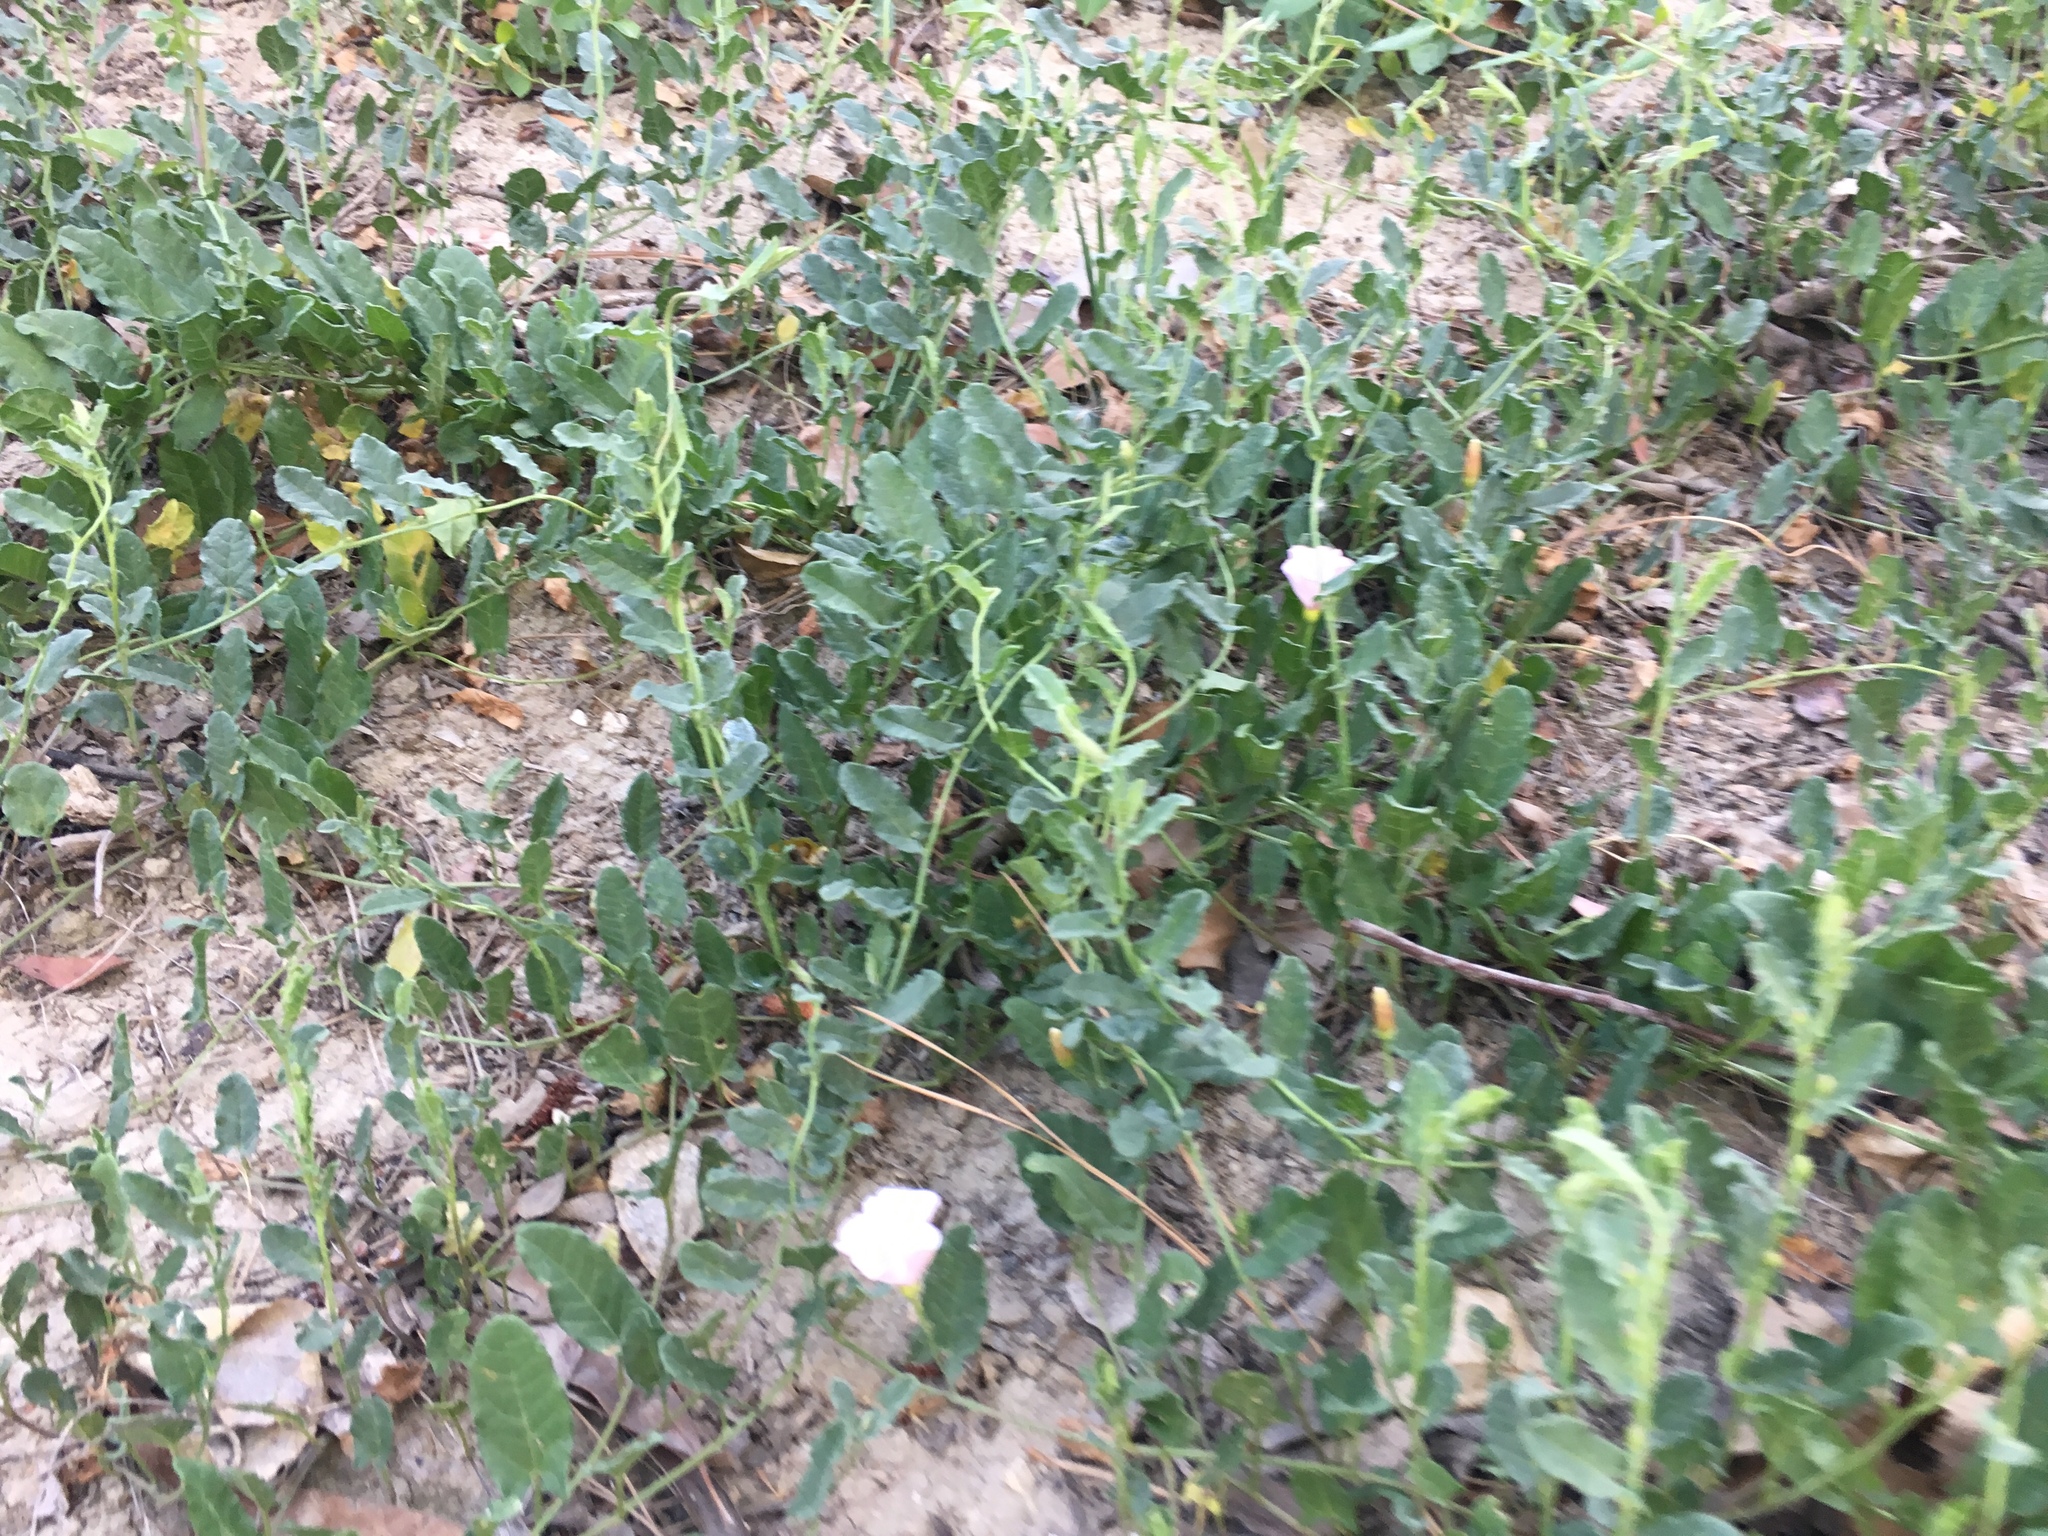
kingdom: Plantae
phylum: Tracheophyta
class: Magnoliopsida
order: Solanales
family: Convolvulaceae
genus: Convolvulus
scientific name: Convolvulus arvensis
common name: Field bindweed
